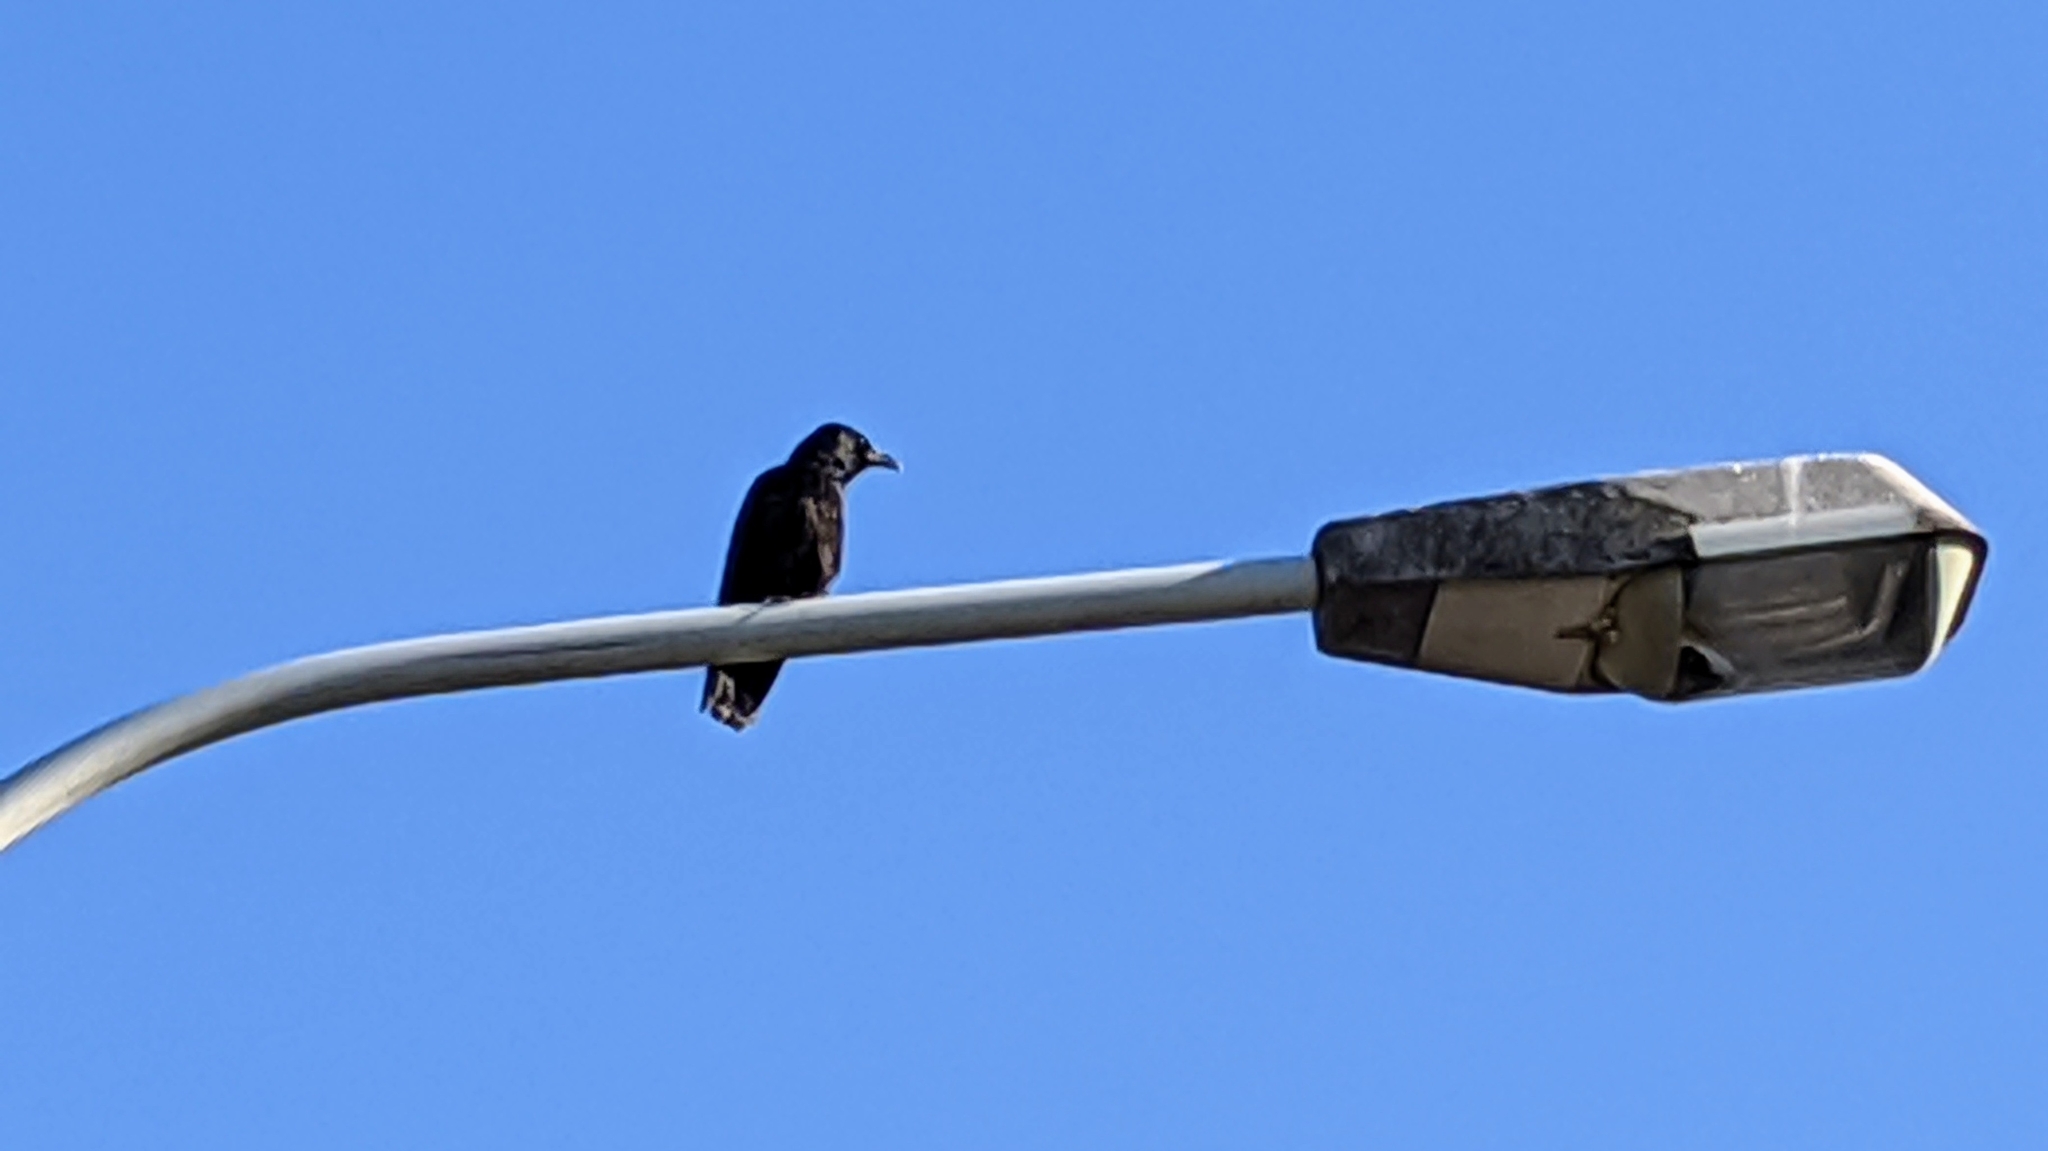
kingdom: Animalia
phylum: Chordata
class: Aves
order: Passeriformes
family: Corvidae
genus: Corvus
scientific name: Corvus corone
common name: Carrion crow
